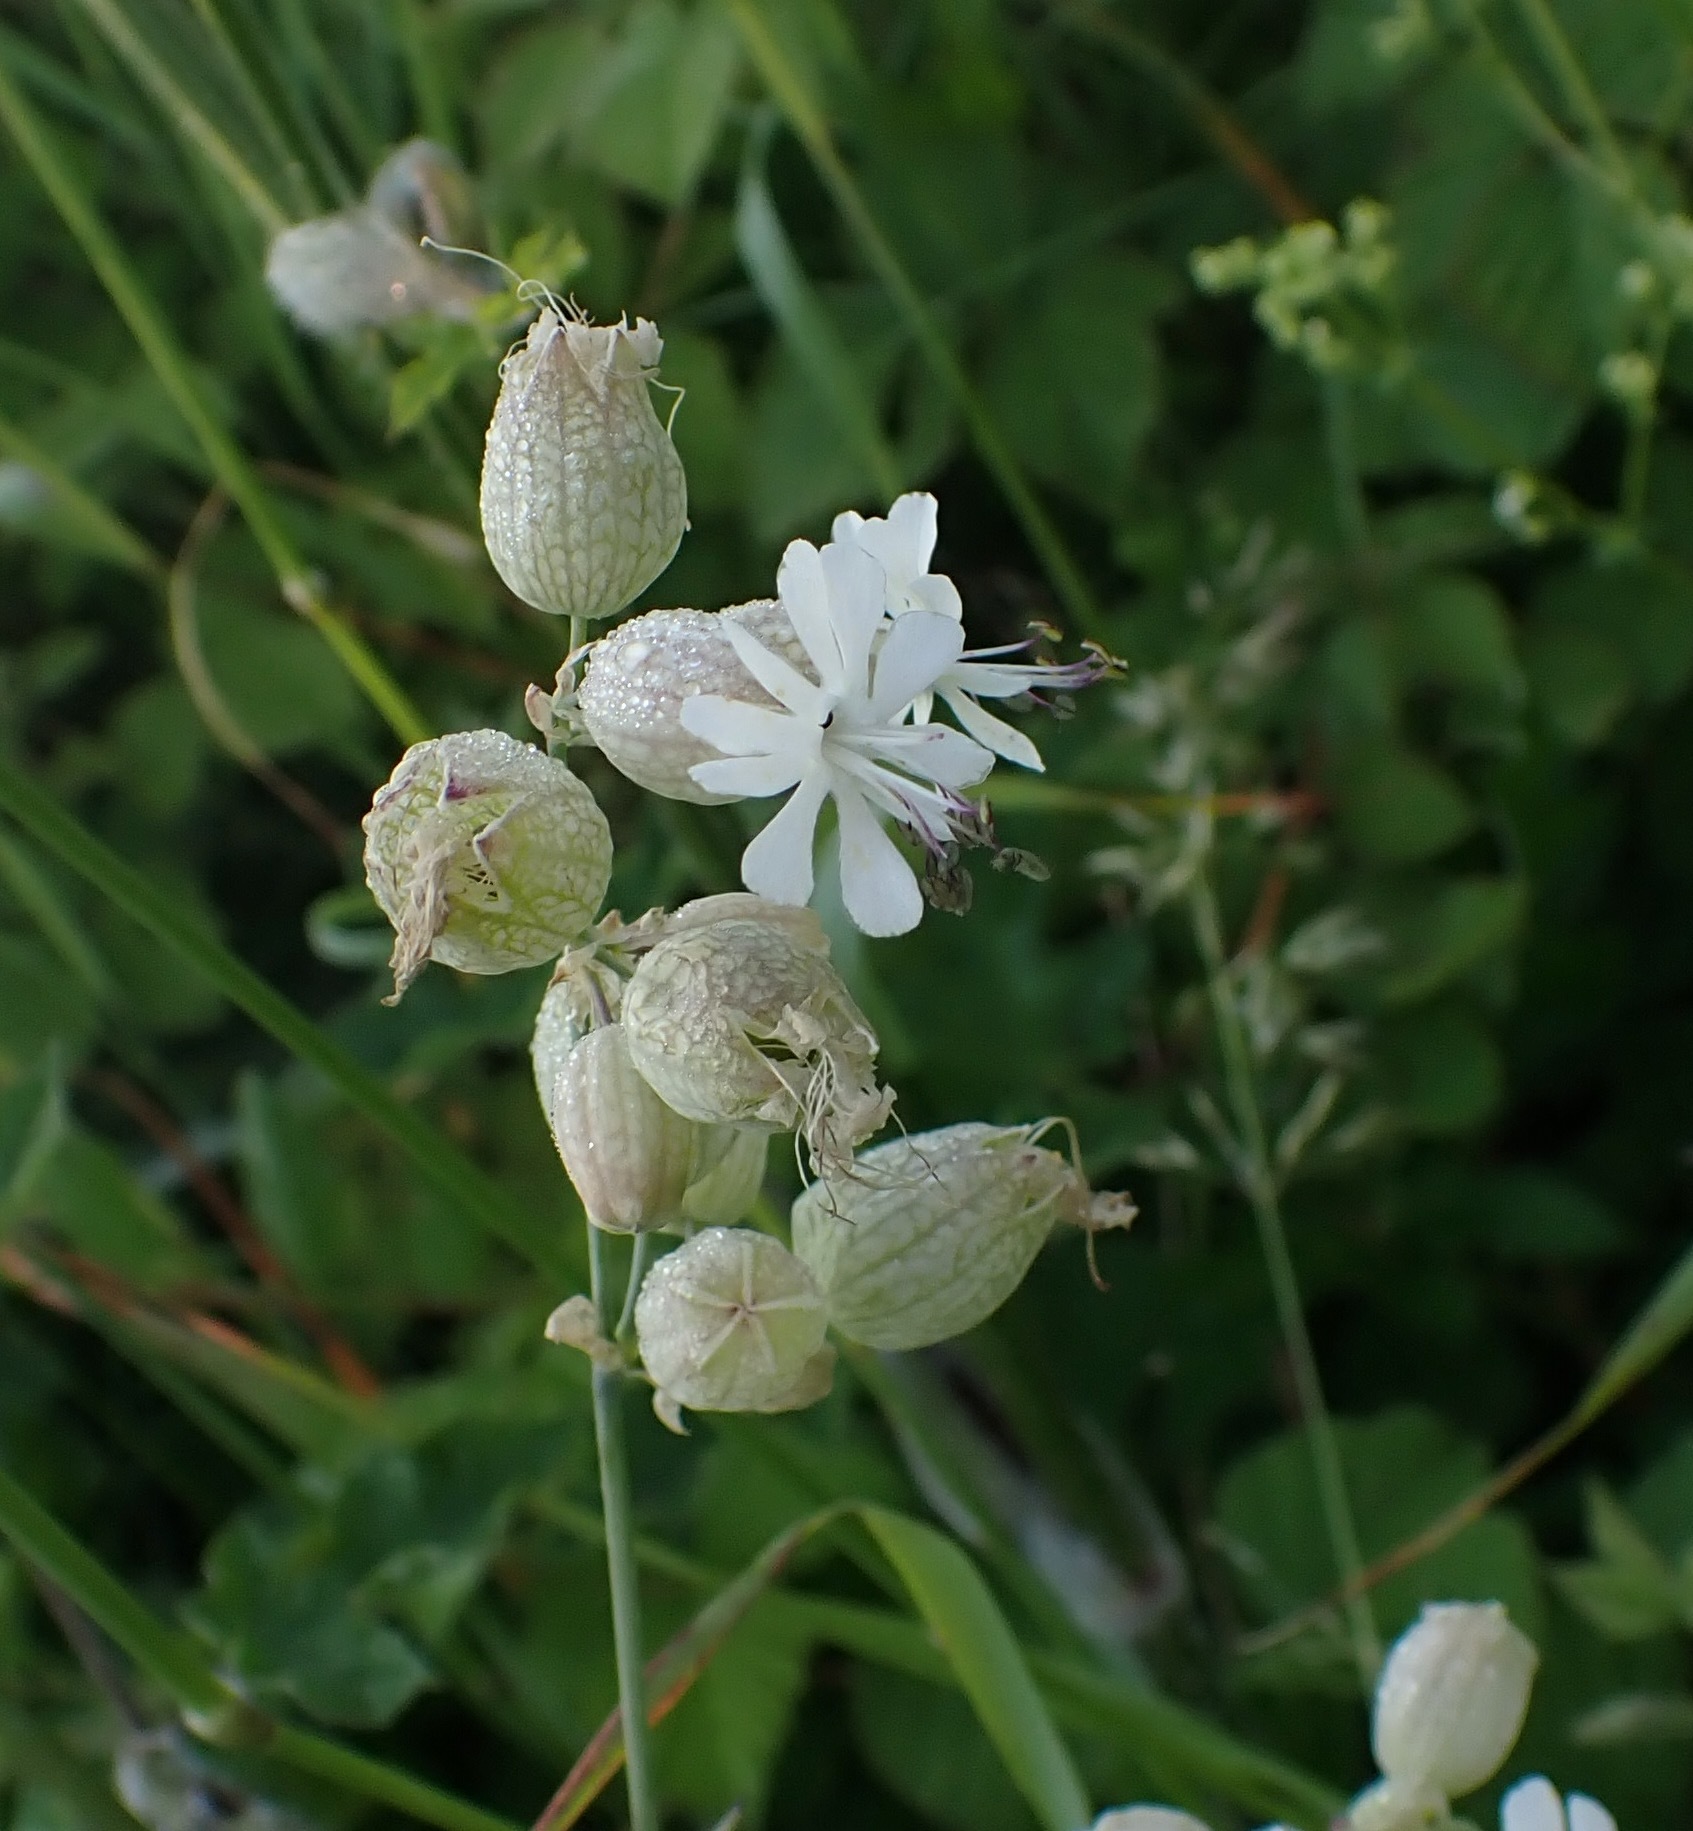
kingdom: Plantae
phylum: Tracheophyta
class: Magnoliopsida
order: Caryophyllales
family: Caryophyllaceae
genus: Silene
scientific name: Silene vulgaris
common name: Bladder campion
